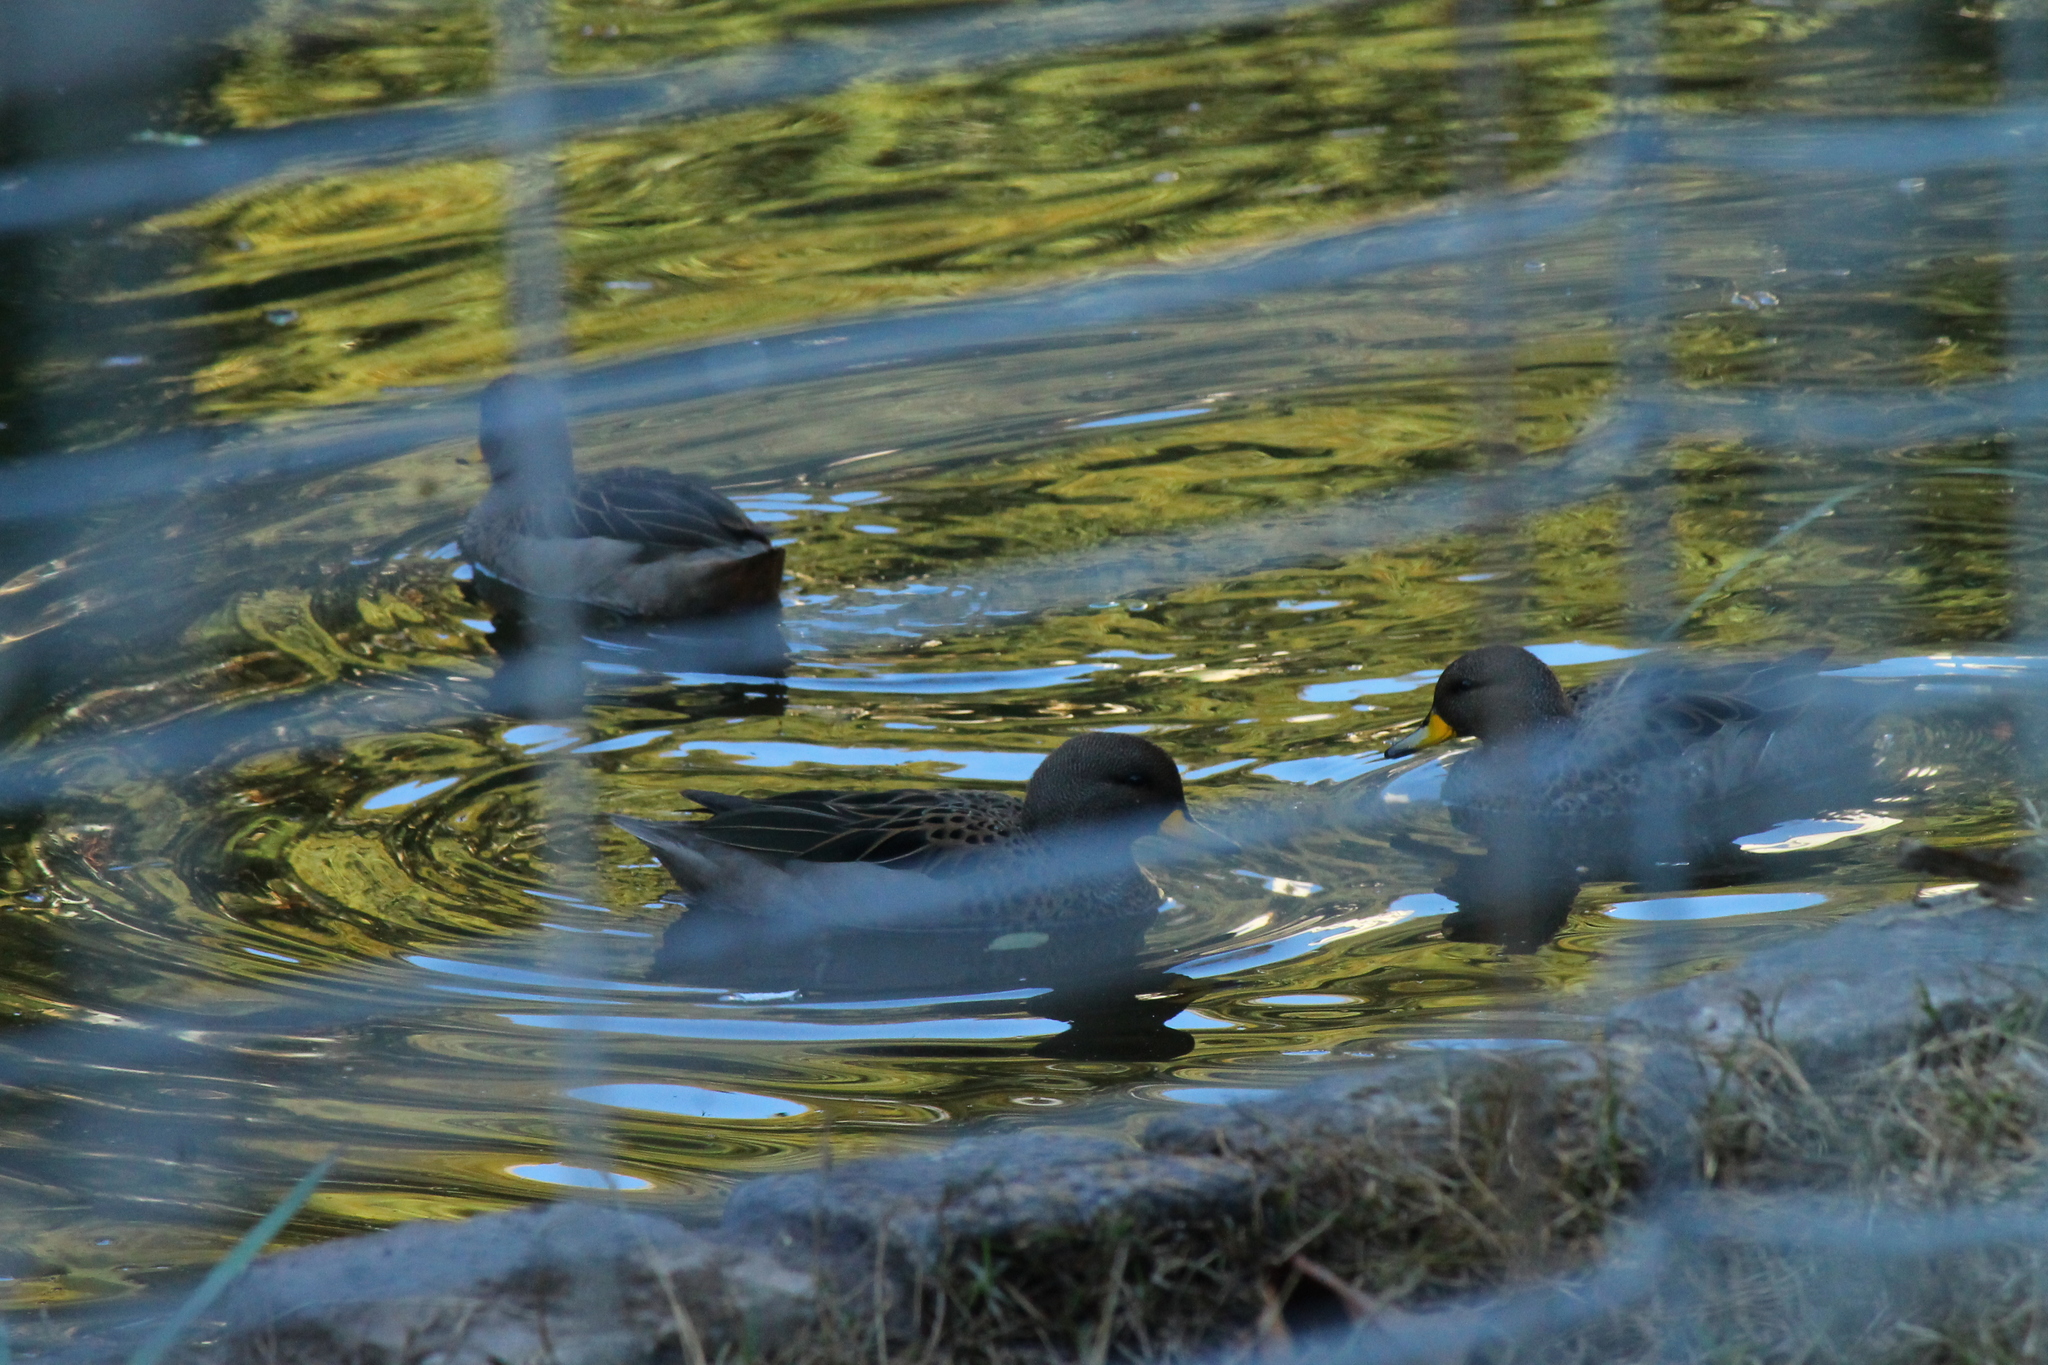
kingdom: Animalia
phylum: Chordata
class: Aves
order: Anseriformes
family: Anatidae
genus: Anas
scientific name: Anas flavirostris
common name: Yellow-billed teal
